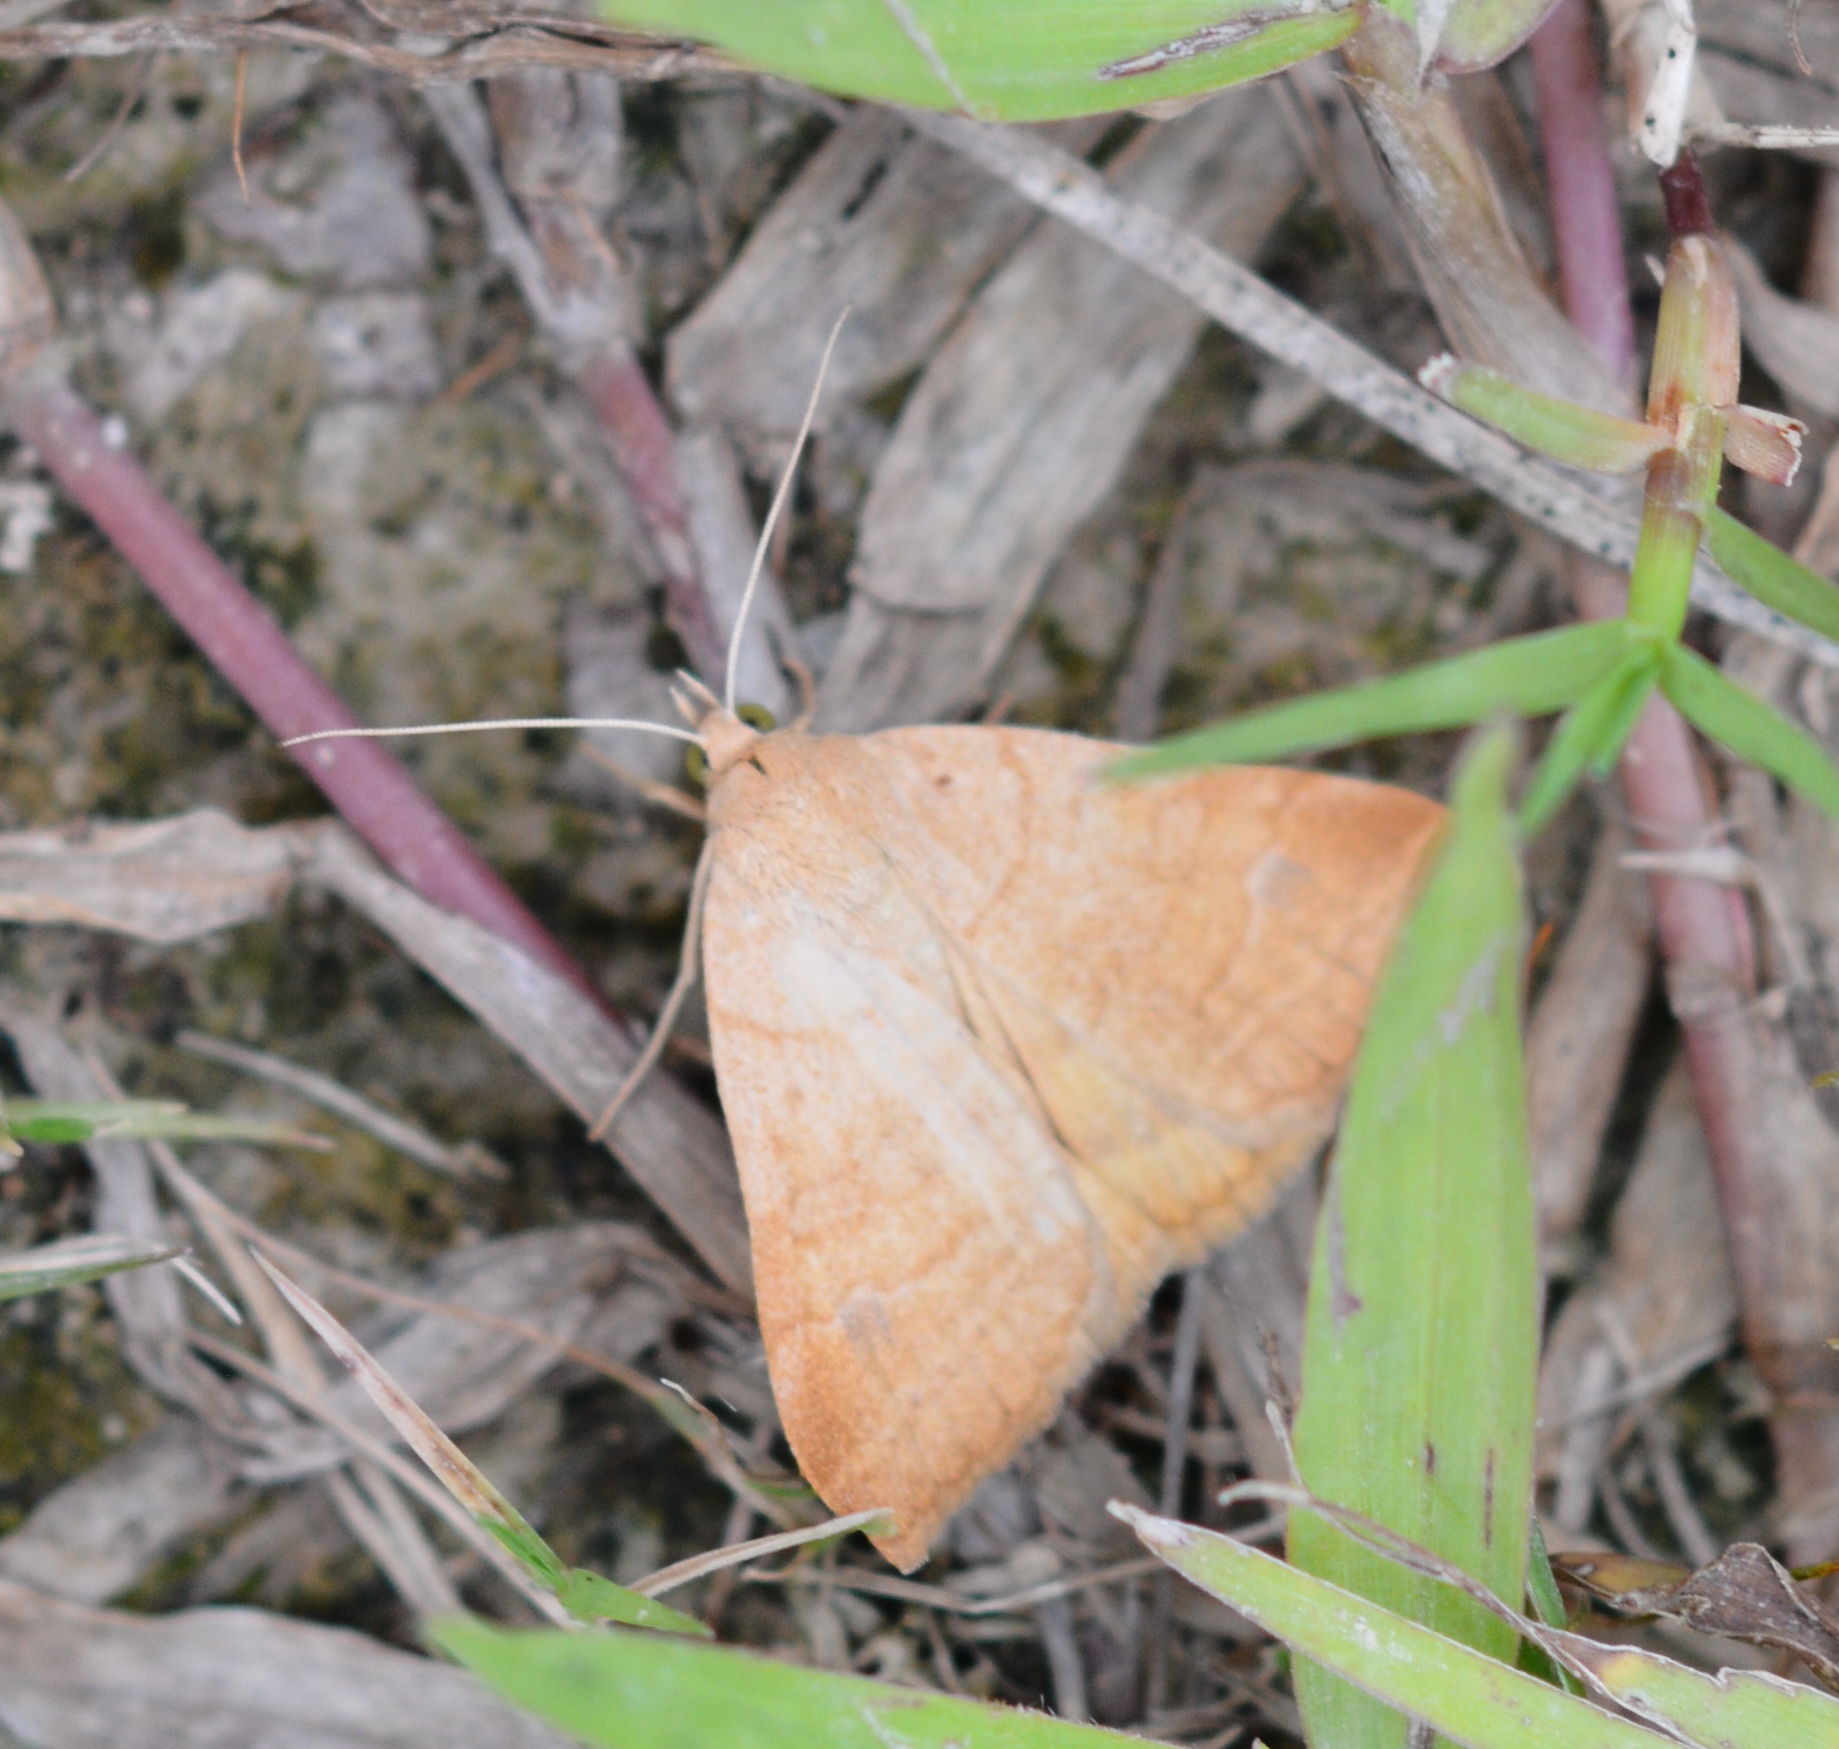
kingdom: Animalia
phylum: Arthropoda
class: Insecta
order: Lepidoptera
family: Erebidae
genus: Caenurgia
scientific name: Caenurgia chloropha
